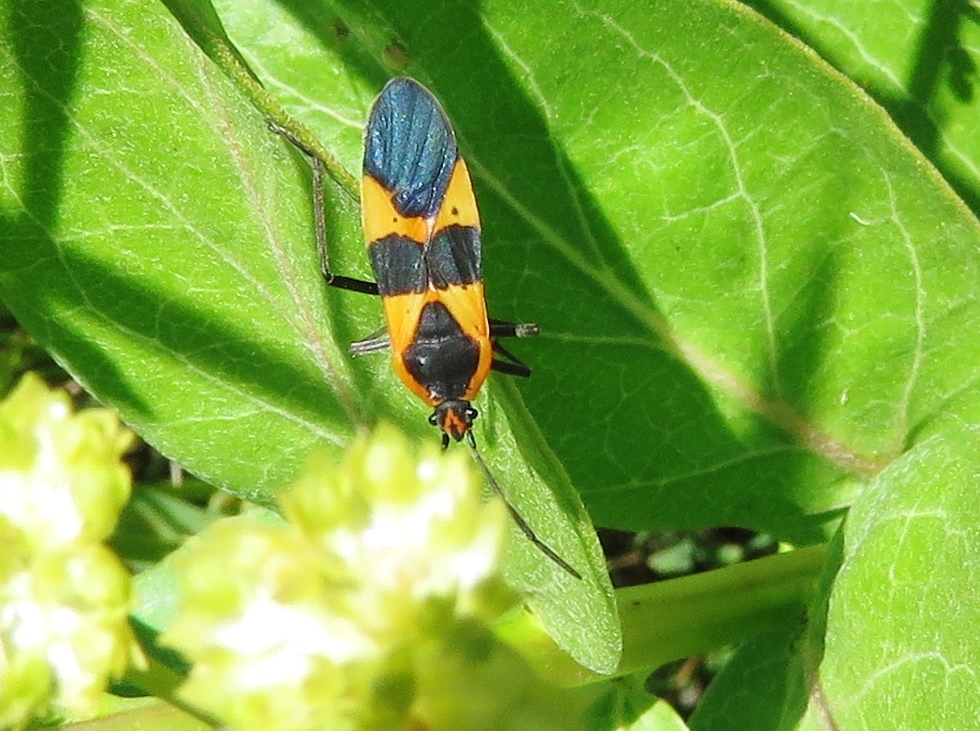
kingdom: Animalia
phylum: Arthropoda
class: Insecta
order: Hemiptera
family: Lygaeidae
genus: Oncopeltus
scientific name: Oncopeltus fasciatus
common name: Large milkweed bug
